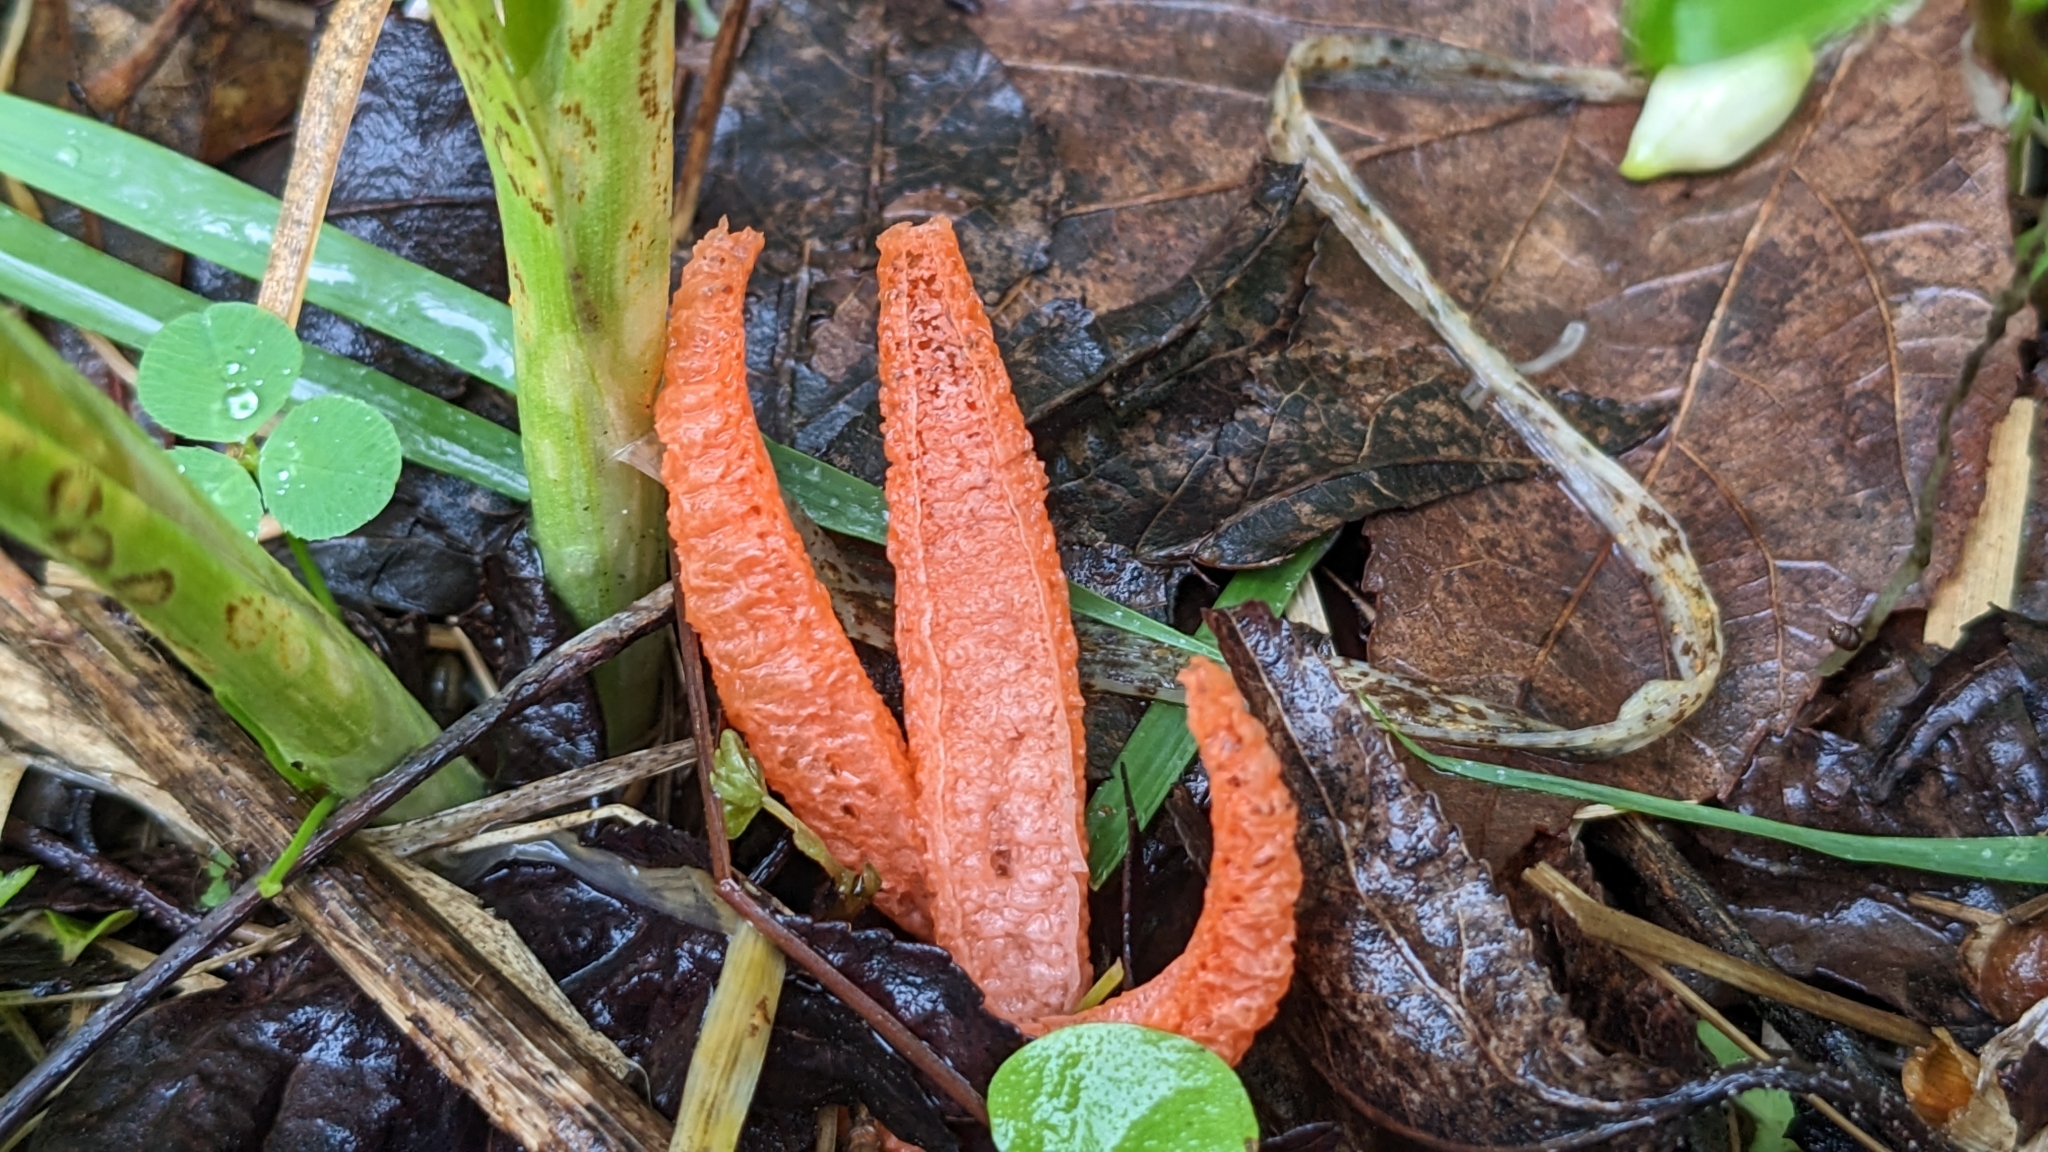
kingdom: Fungi
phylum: Basidiomycota
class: Agaricomycetes
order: Phallales
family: Phallaceae
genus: Pseudocolus
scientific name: Pseudocolus fusiformis
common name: Stinky squid
